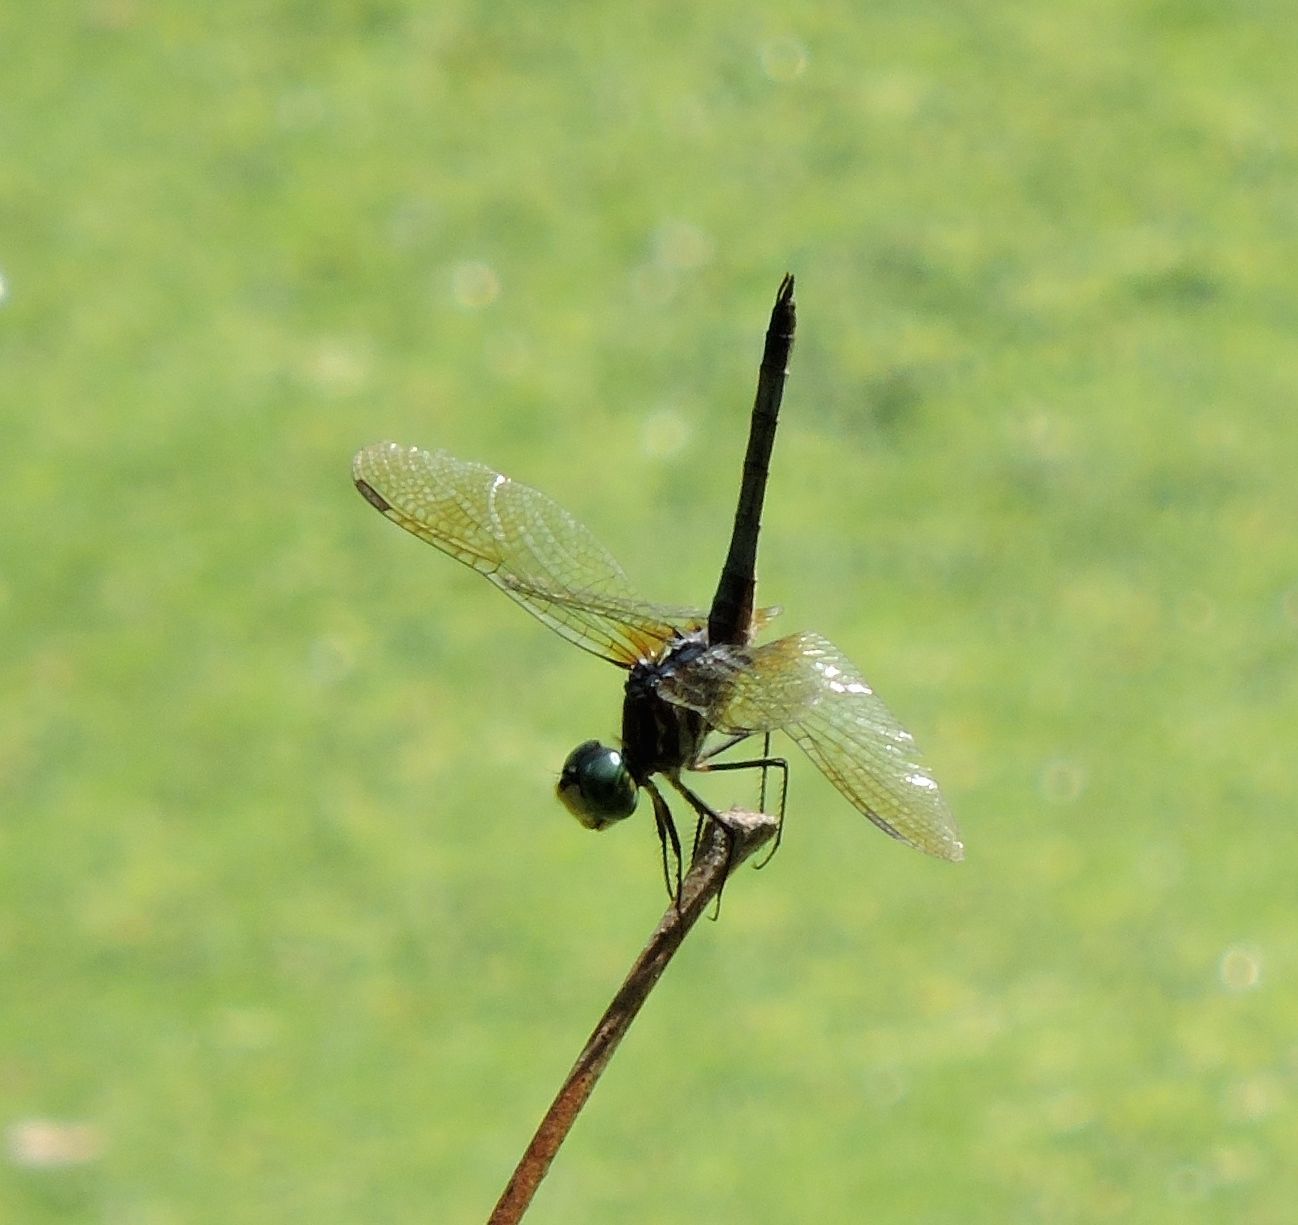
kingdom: Animalia
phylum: Arthropoda
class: Insecta
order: Odonata
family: Libellulidae
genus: Pachydiplax
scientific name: Pachydiplax longipennis
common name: Blue dasher
